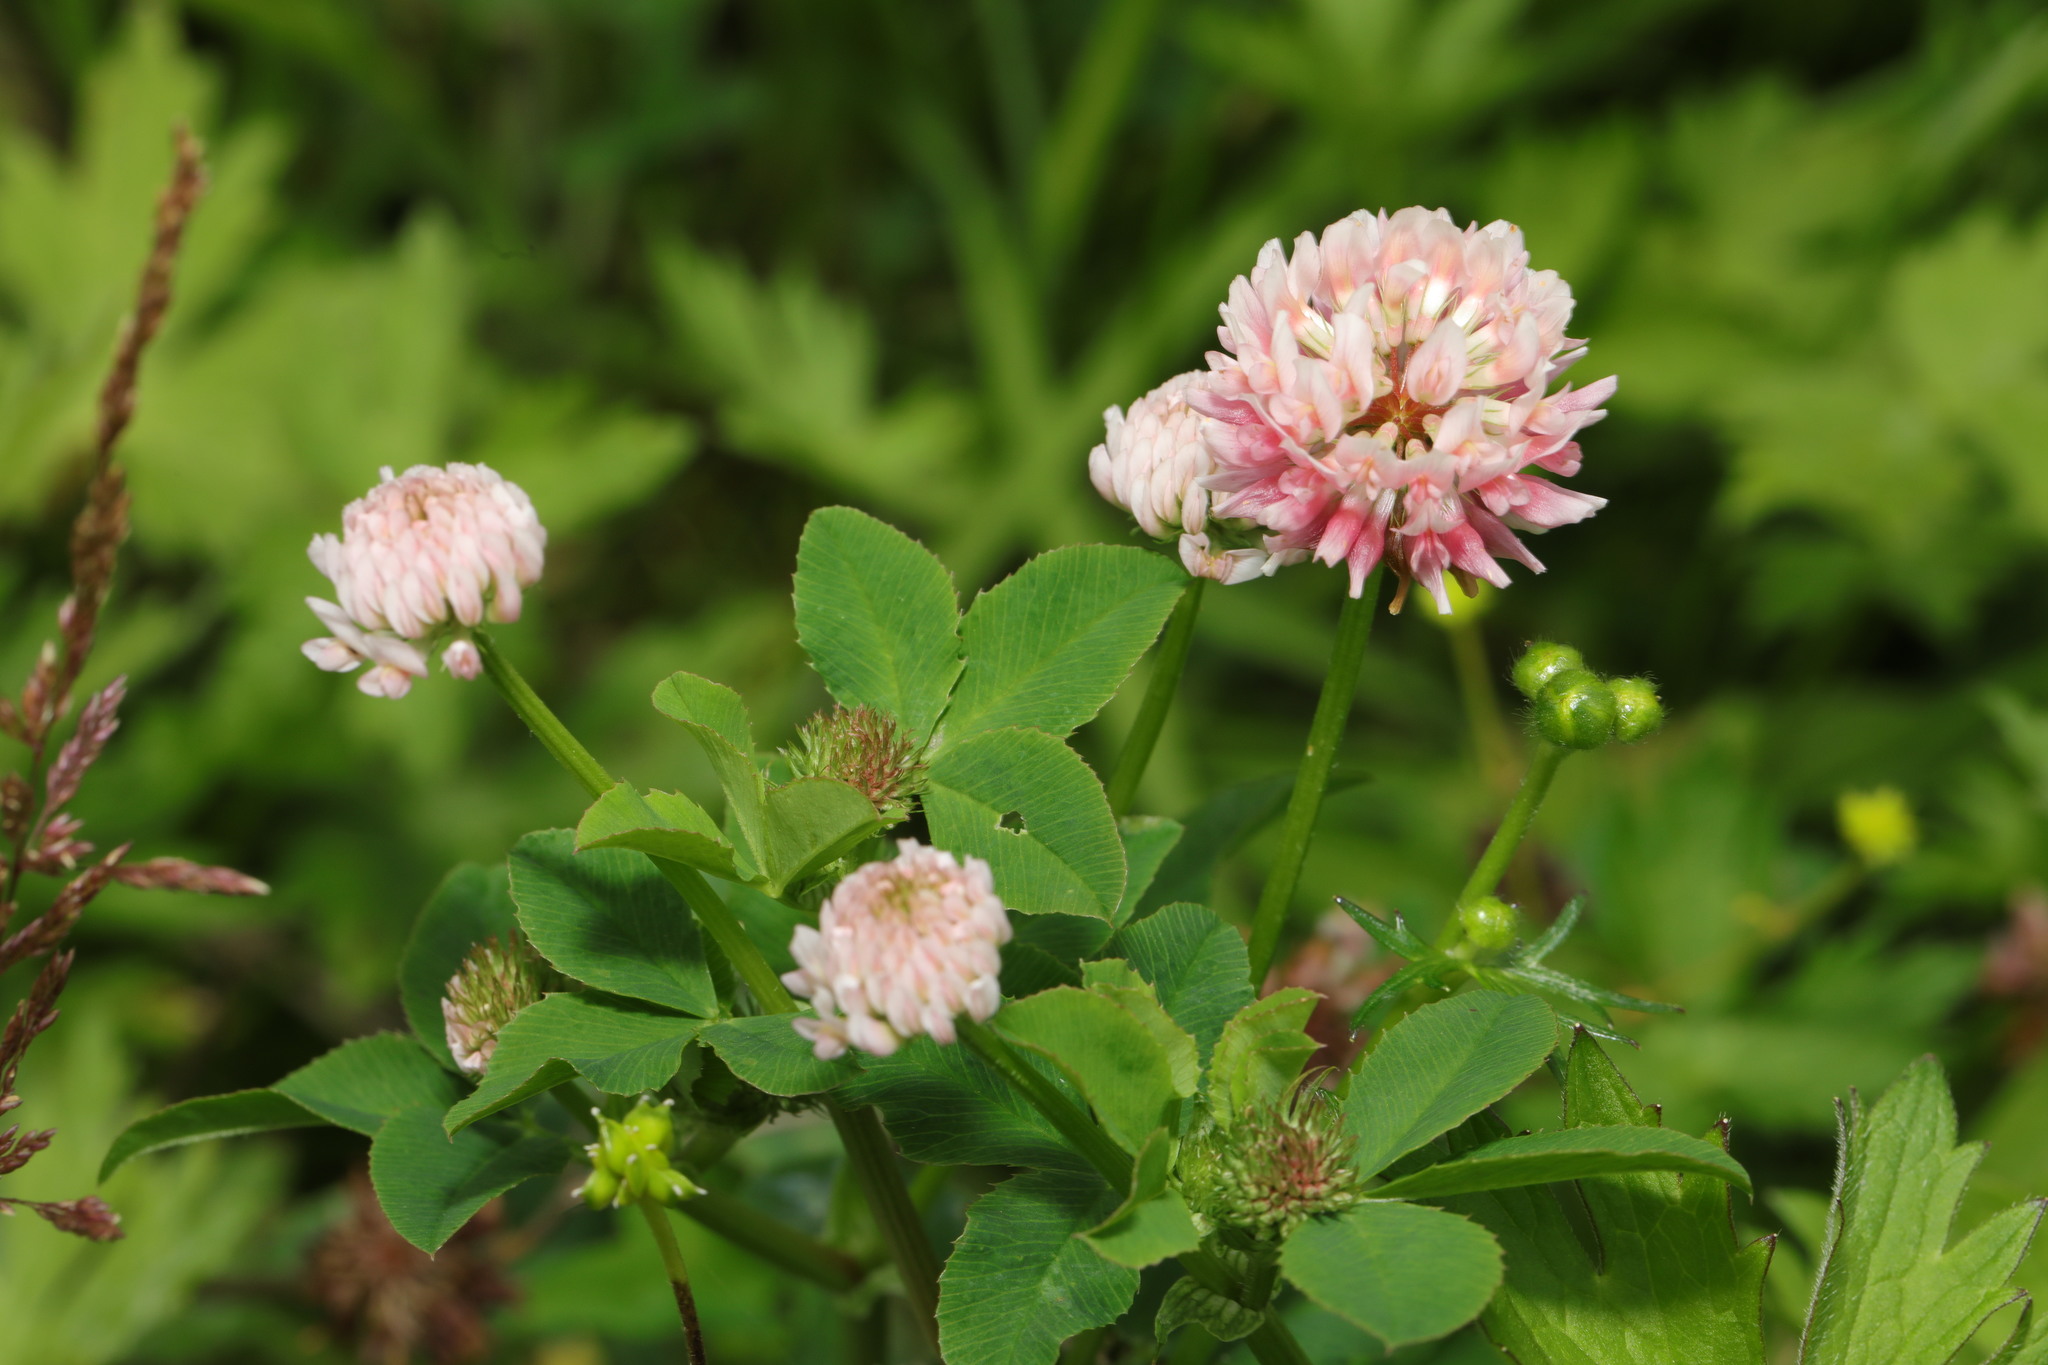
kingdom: Plantae
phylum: Tracheophyta
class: Magnoliopsida
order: Fabales
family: Fabaceae
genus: Trifolium
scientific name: Trifolium hybridum
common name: Alsike clover
